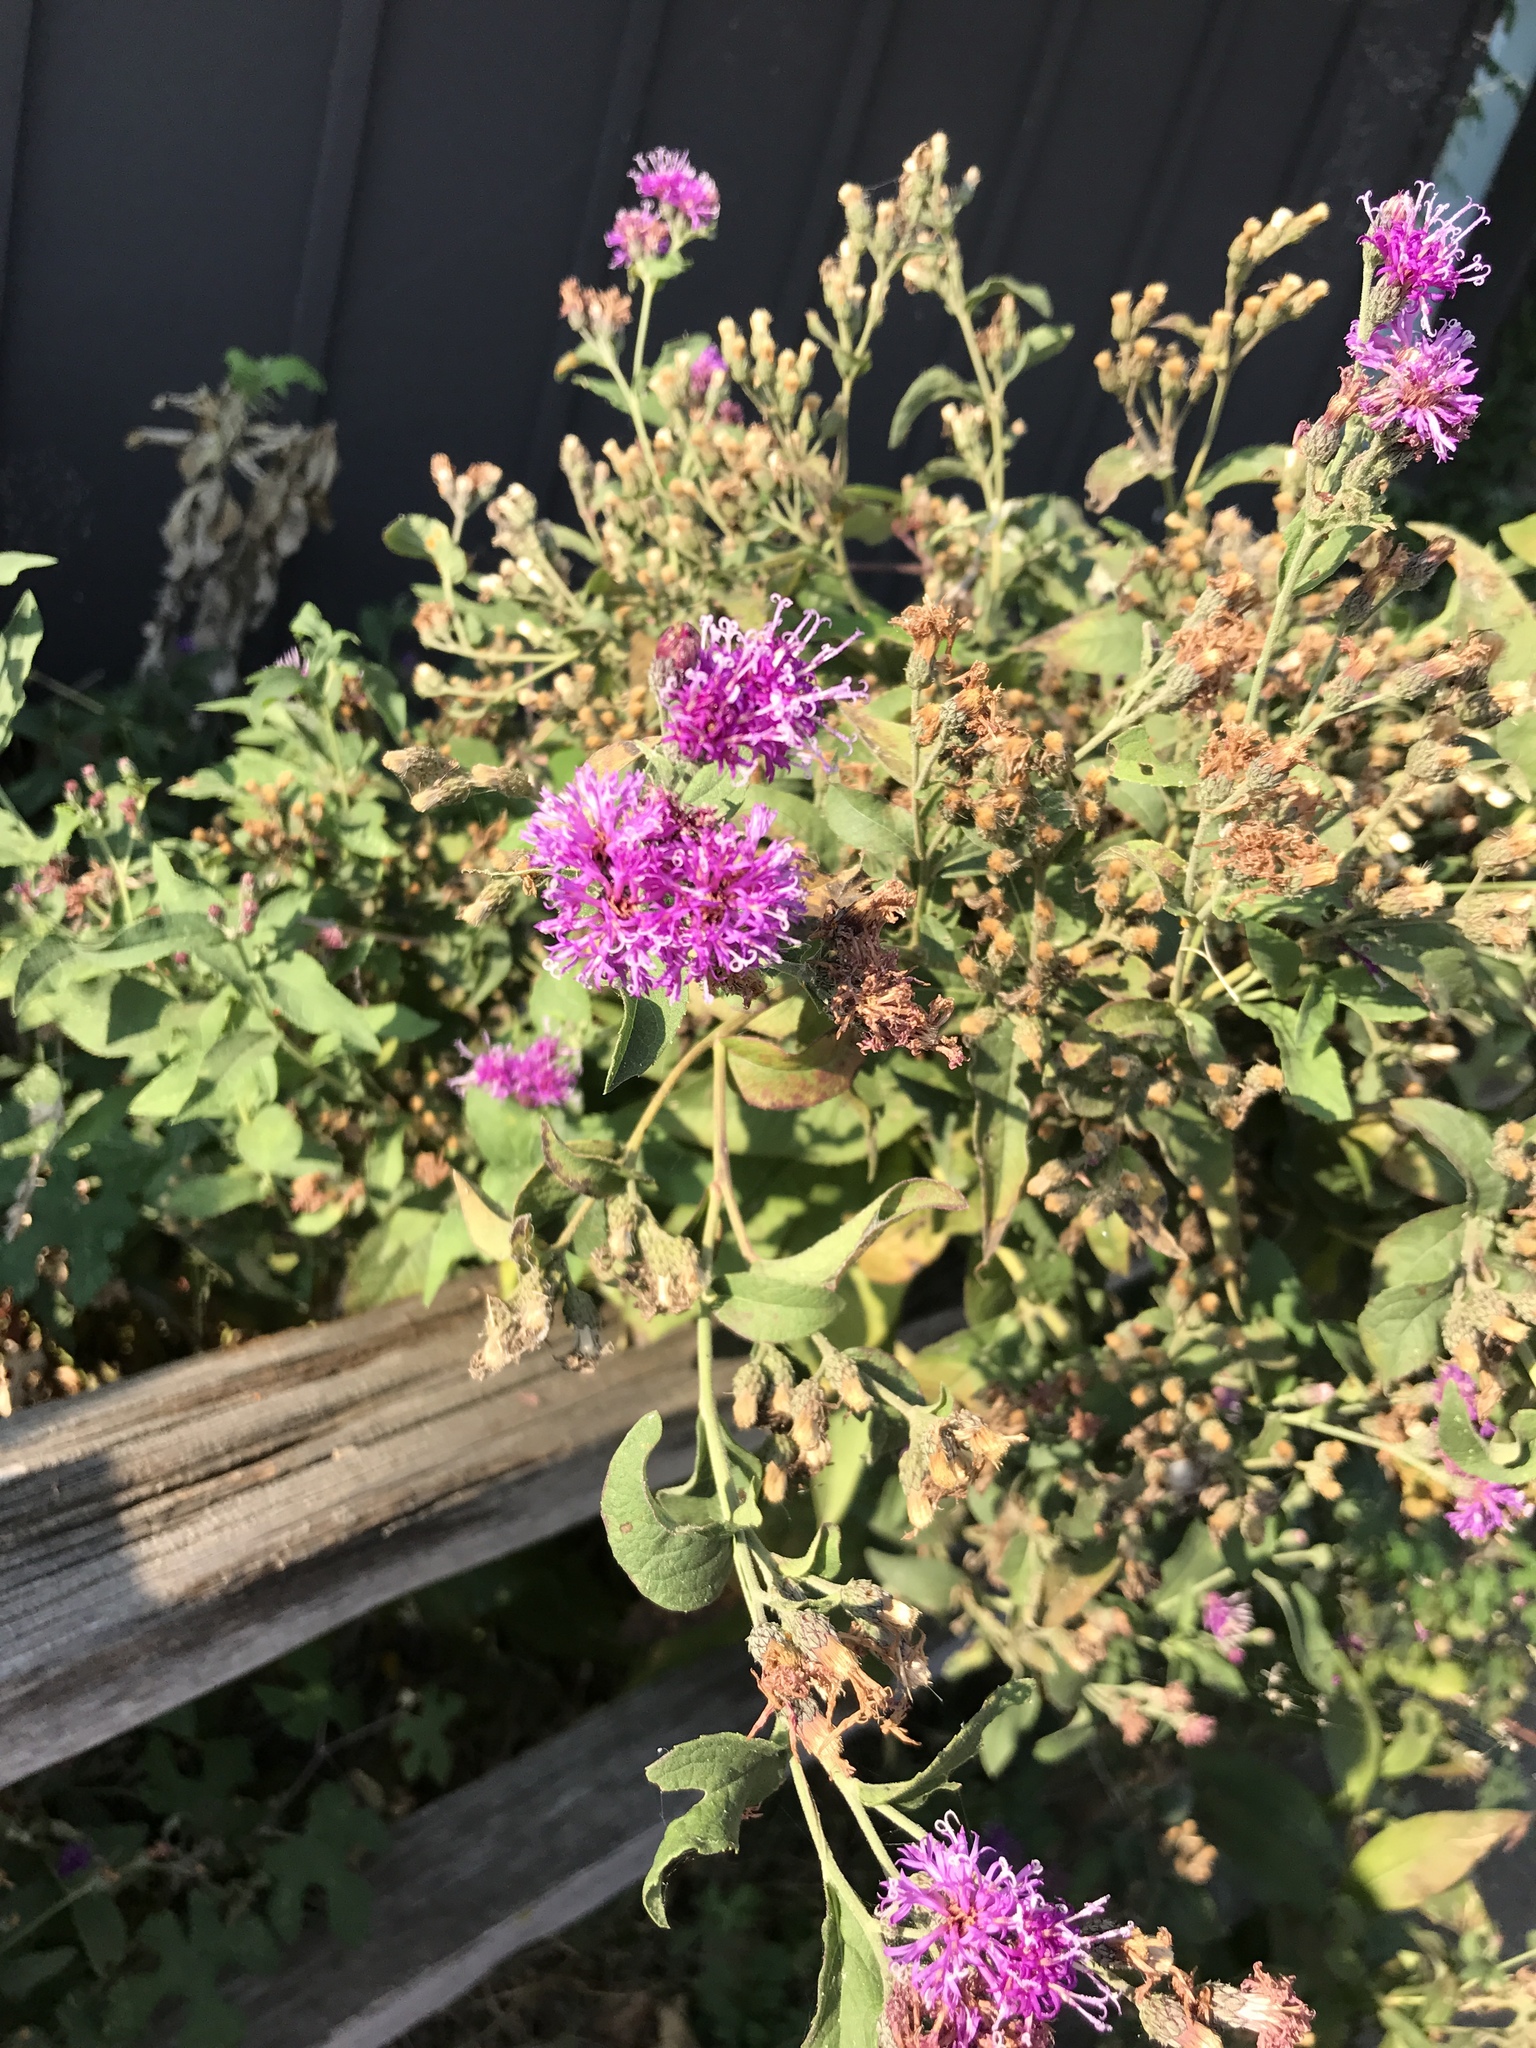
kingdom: Plantae
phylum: Tracheophyta
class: Magnoliopsida
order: Asterales
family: Asteraceae
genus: Vernonia
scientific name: Vernonia baldwinii
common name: Western ironweed
